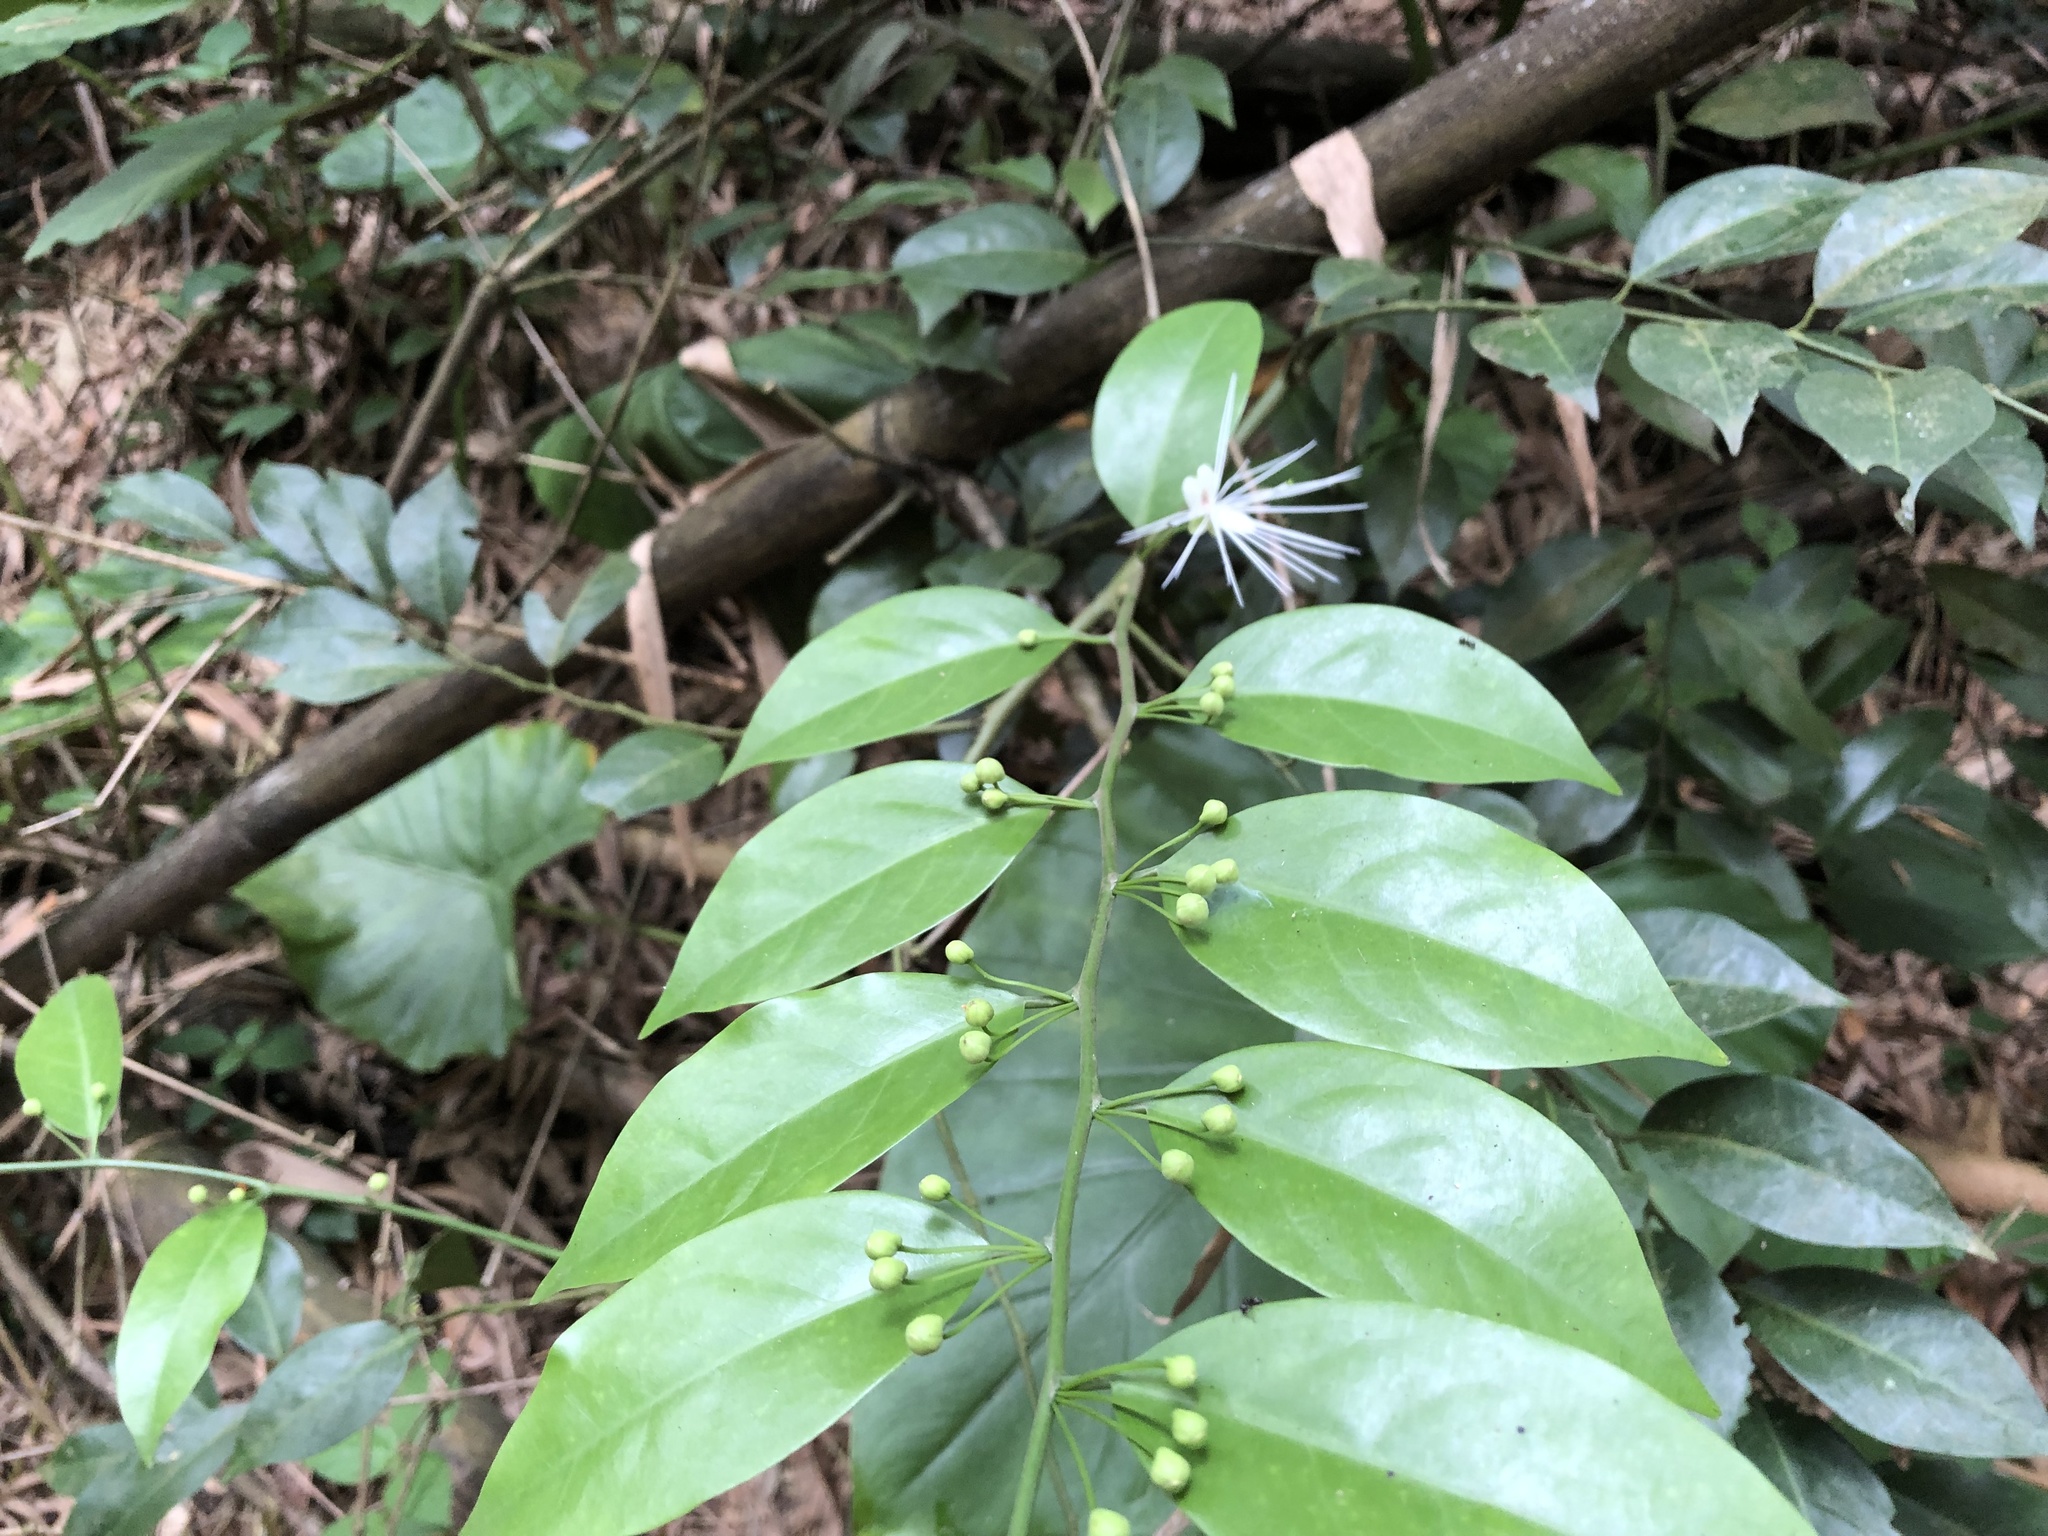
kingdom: Plantae
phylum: Tracheophyta
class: Magnoliopsida
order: Brassicales
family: Capparaceae
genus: Capparis
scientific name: Capparis sabiifolia
